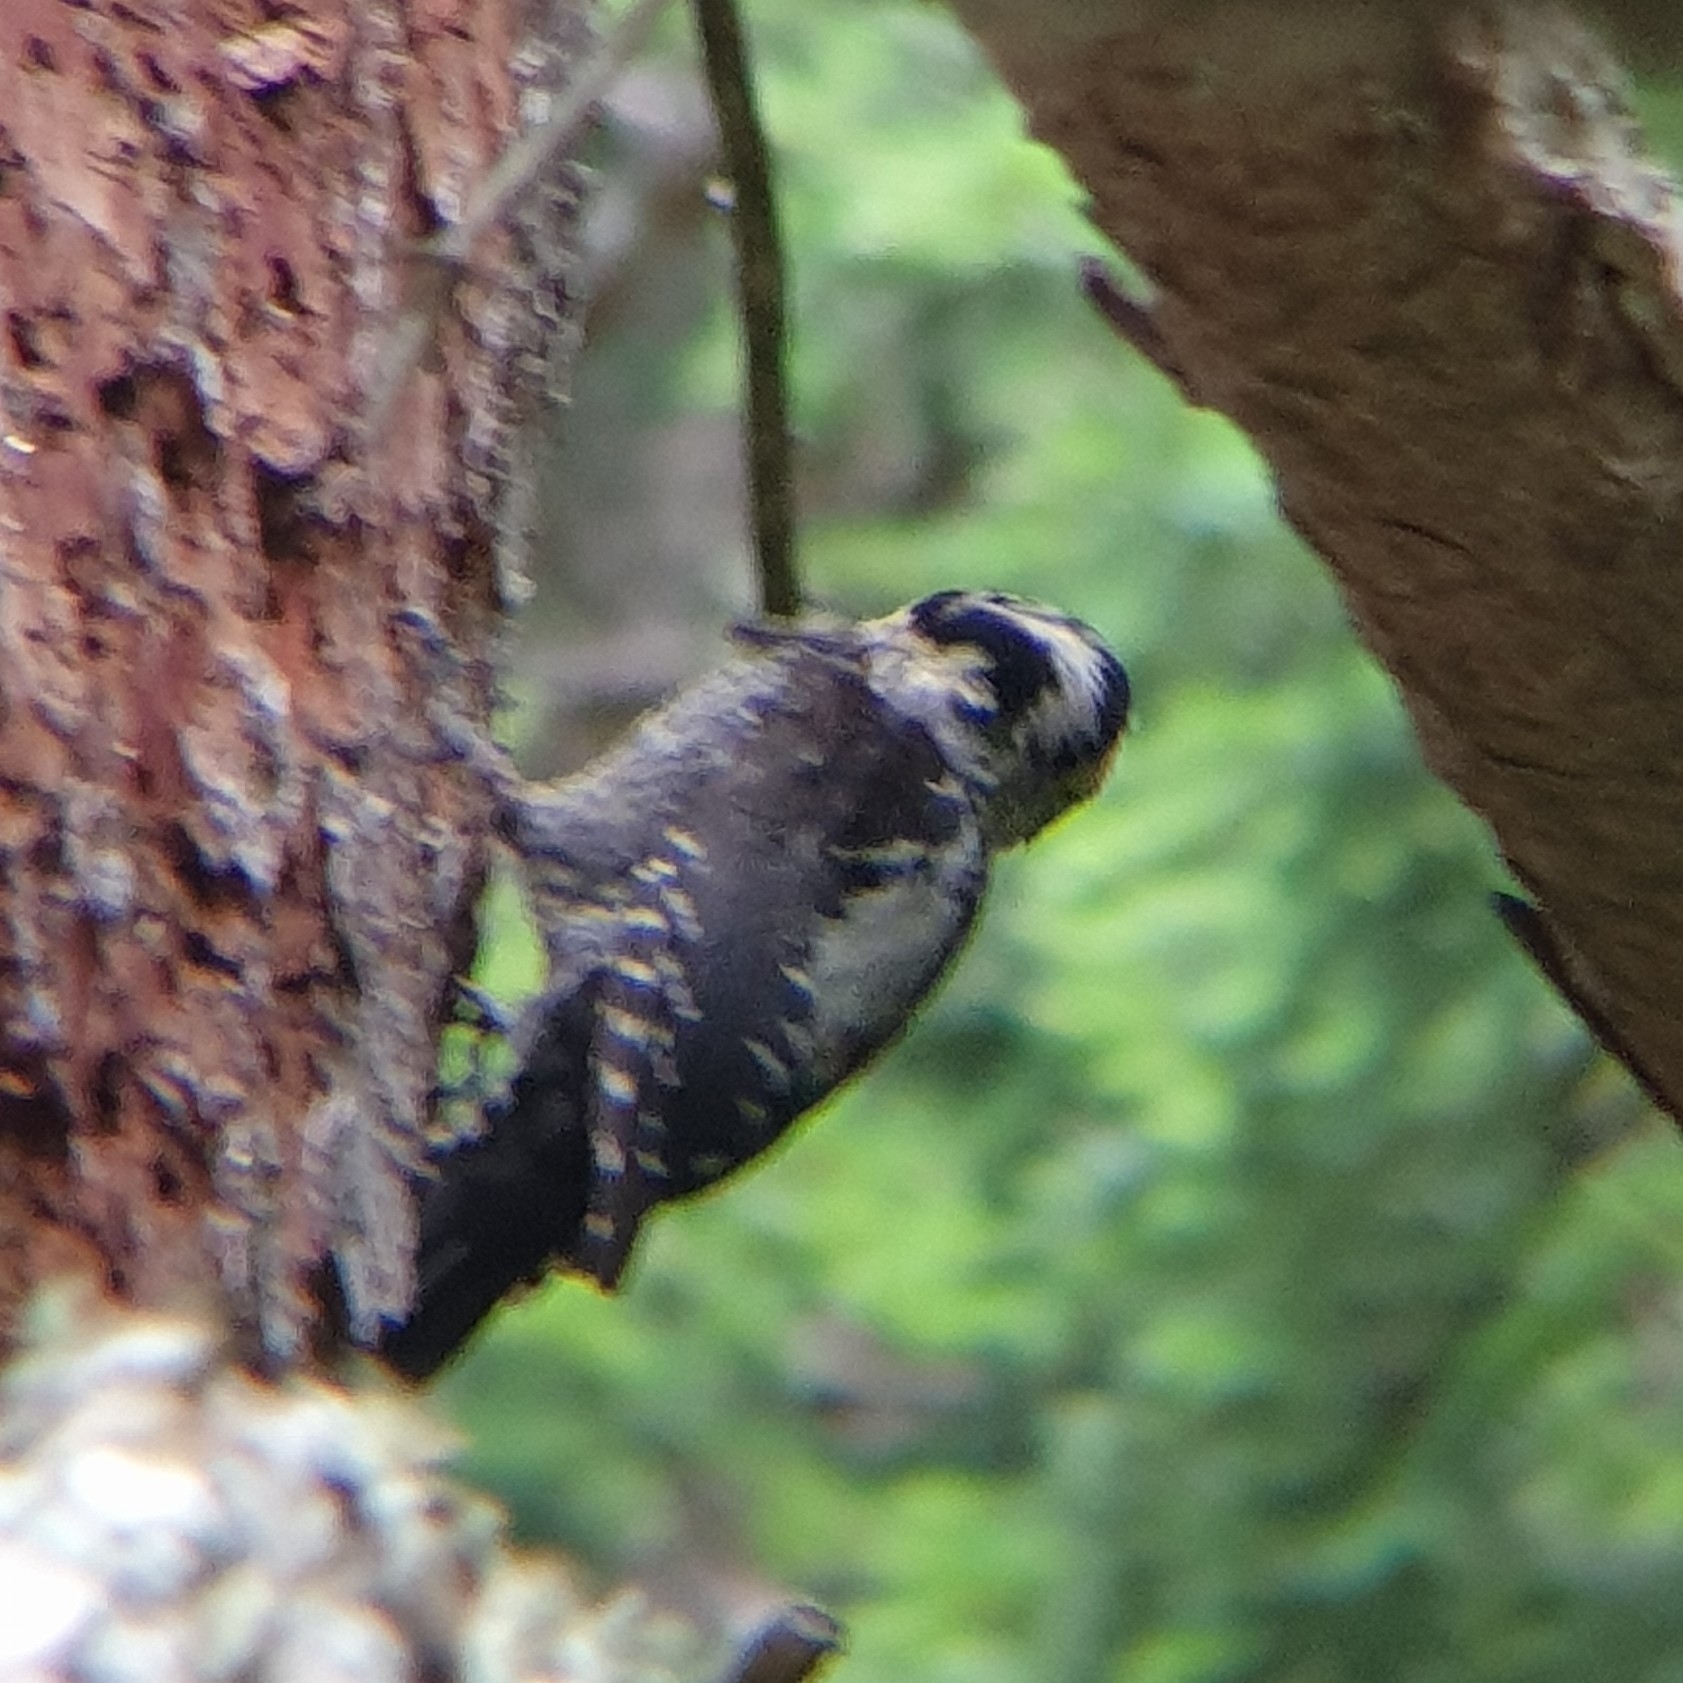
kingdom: Animalia
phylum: Chordata
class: Aves
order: Piciformes
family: Picidae
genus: Picoides
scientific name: Picoides tridactylus
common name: Eurasian three-toed woodpecker
